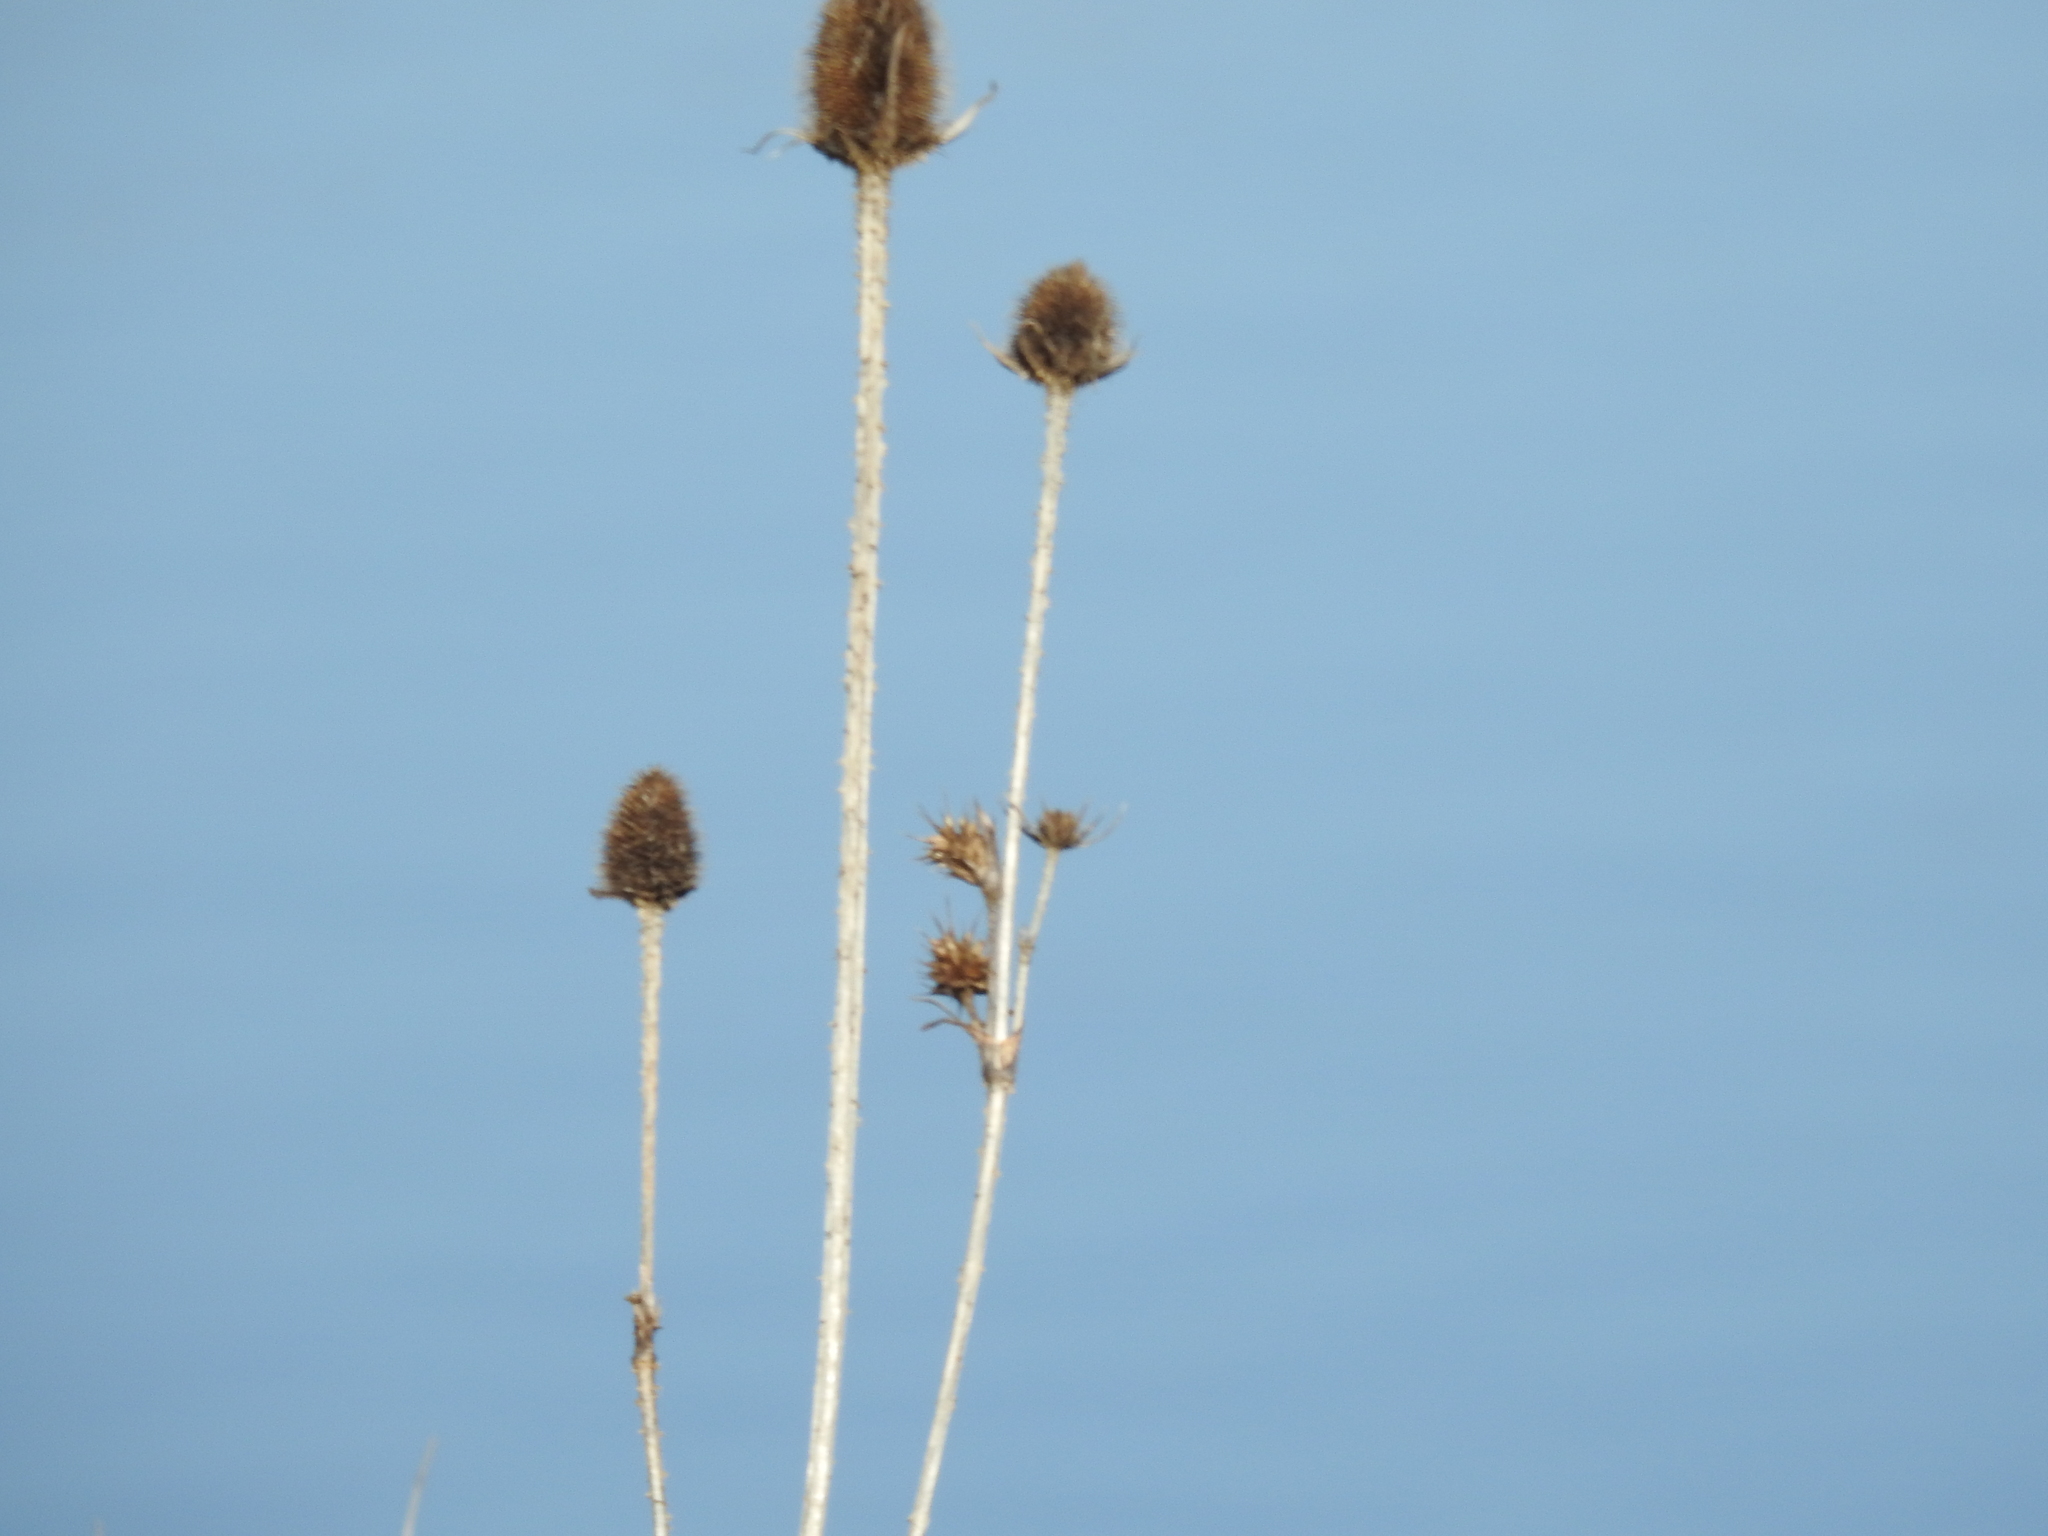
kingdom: Plantae
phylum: Tracheophyta
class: Magnoliopsida
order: Dipsacales
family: Caprifoliaceae
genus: Dipsacus
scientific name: Dipsacus laciniatus
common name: Cut-leaved teasel
